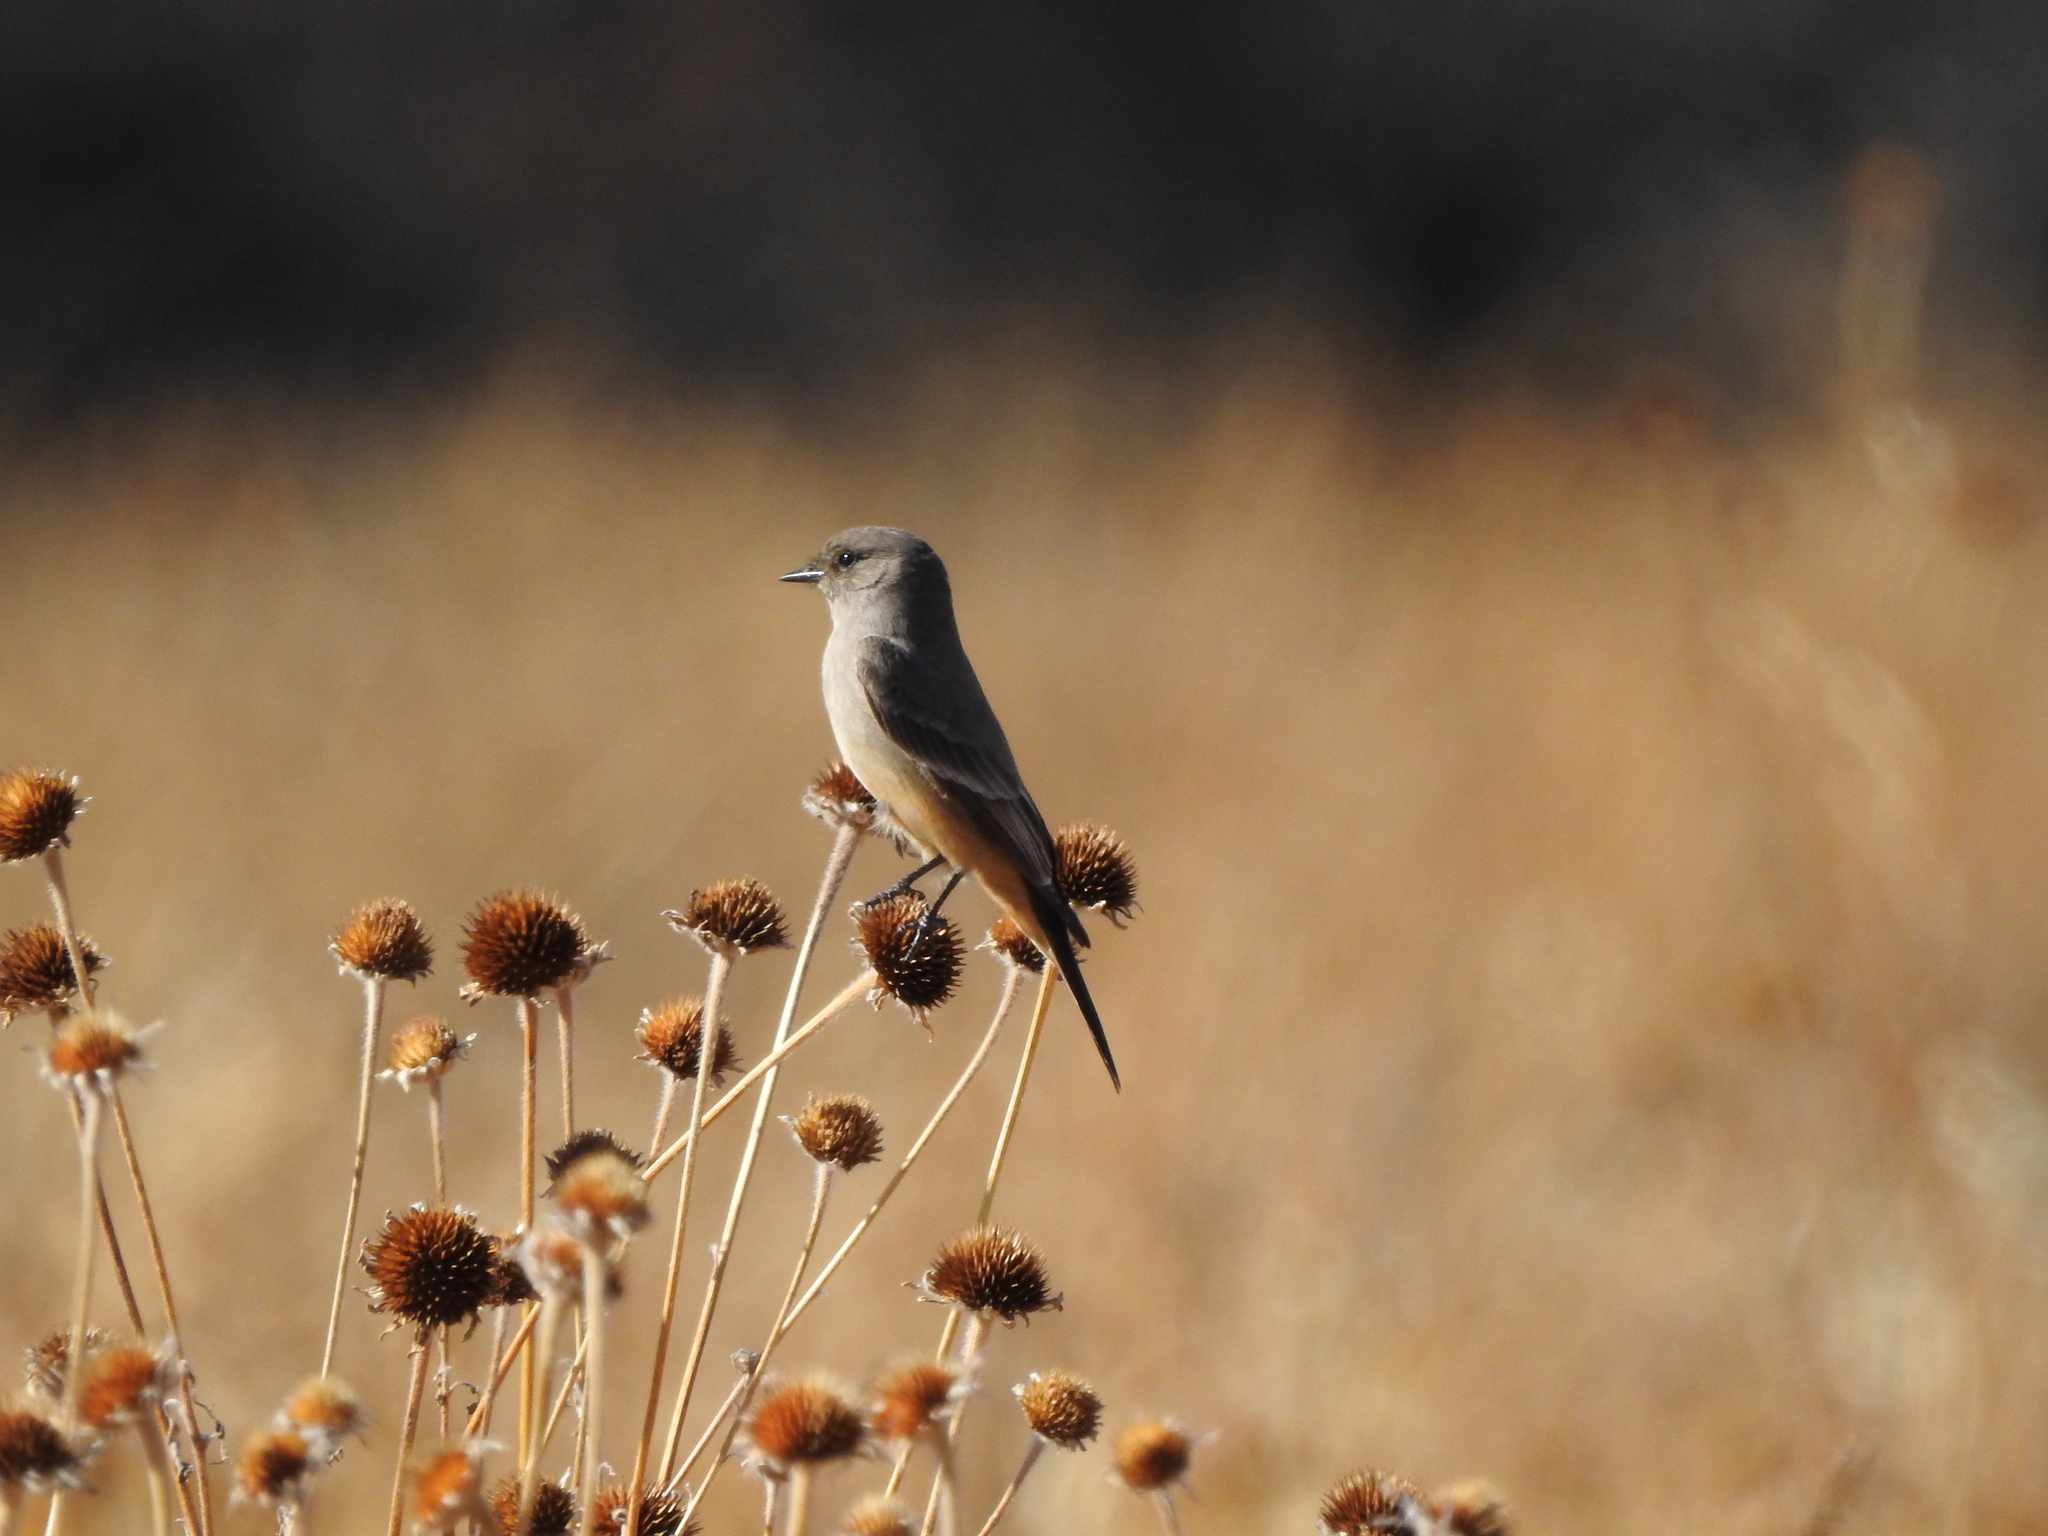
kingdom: Animalia
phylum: Chordata
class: Aves
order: Passeriformes
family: Tyrannidae
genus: Sayornis
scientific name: Sayornis saya
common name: Say's phoebe
